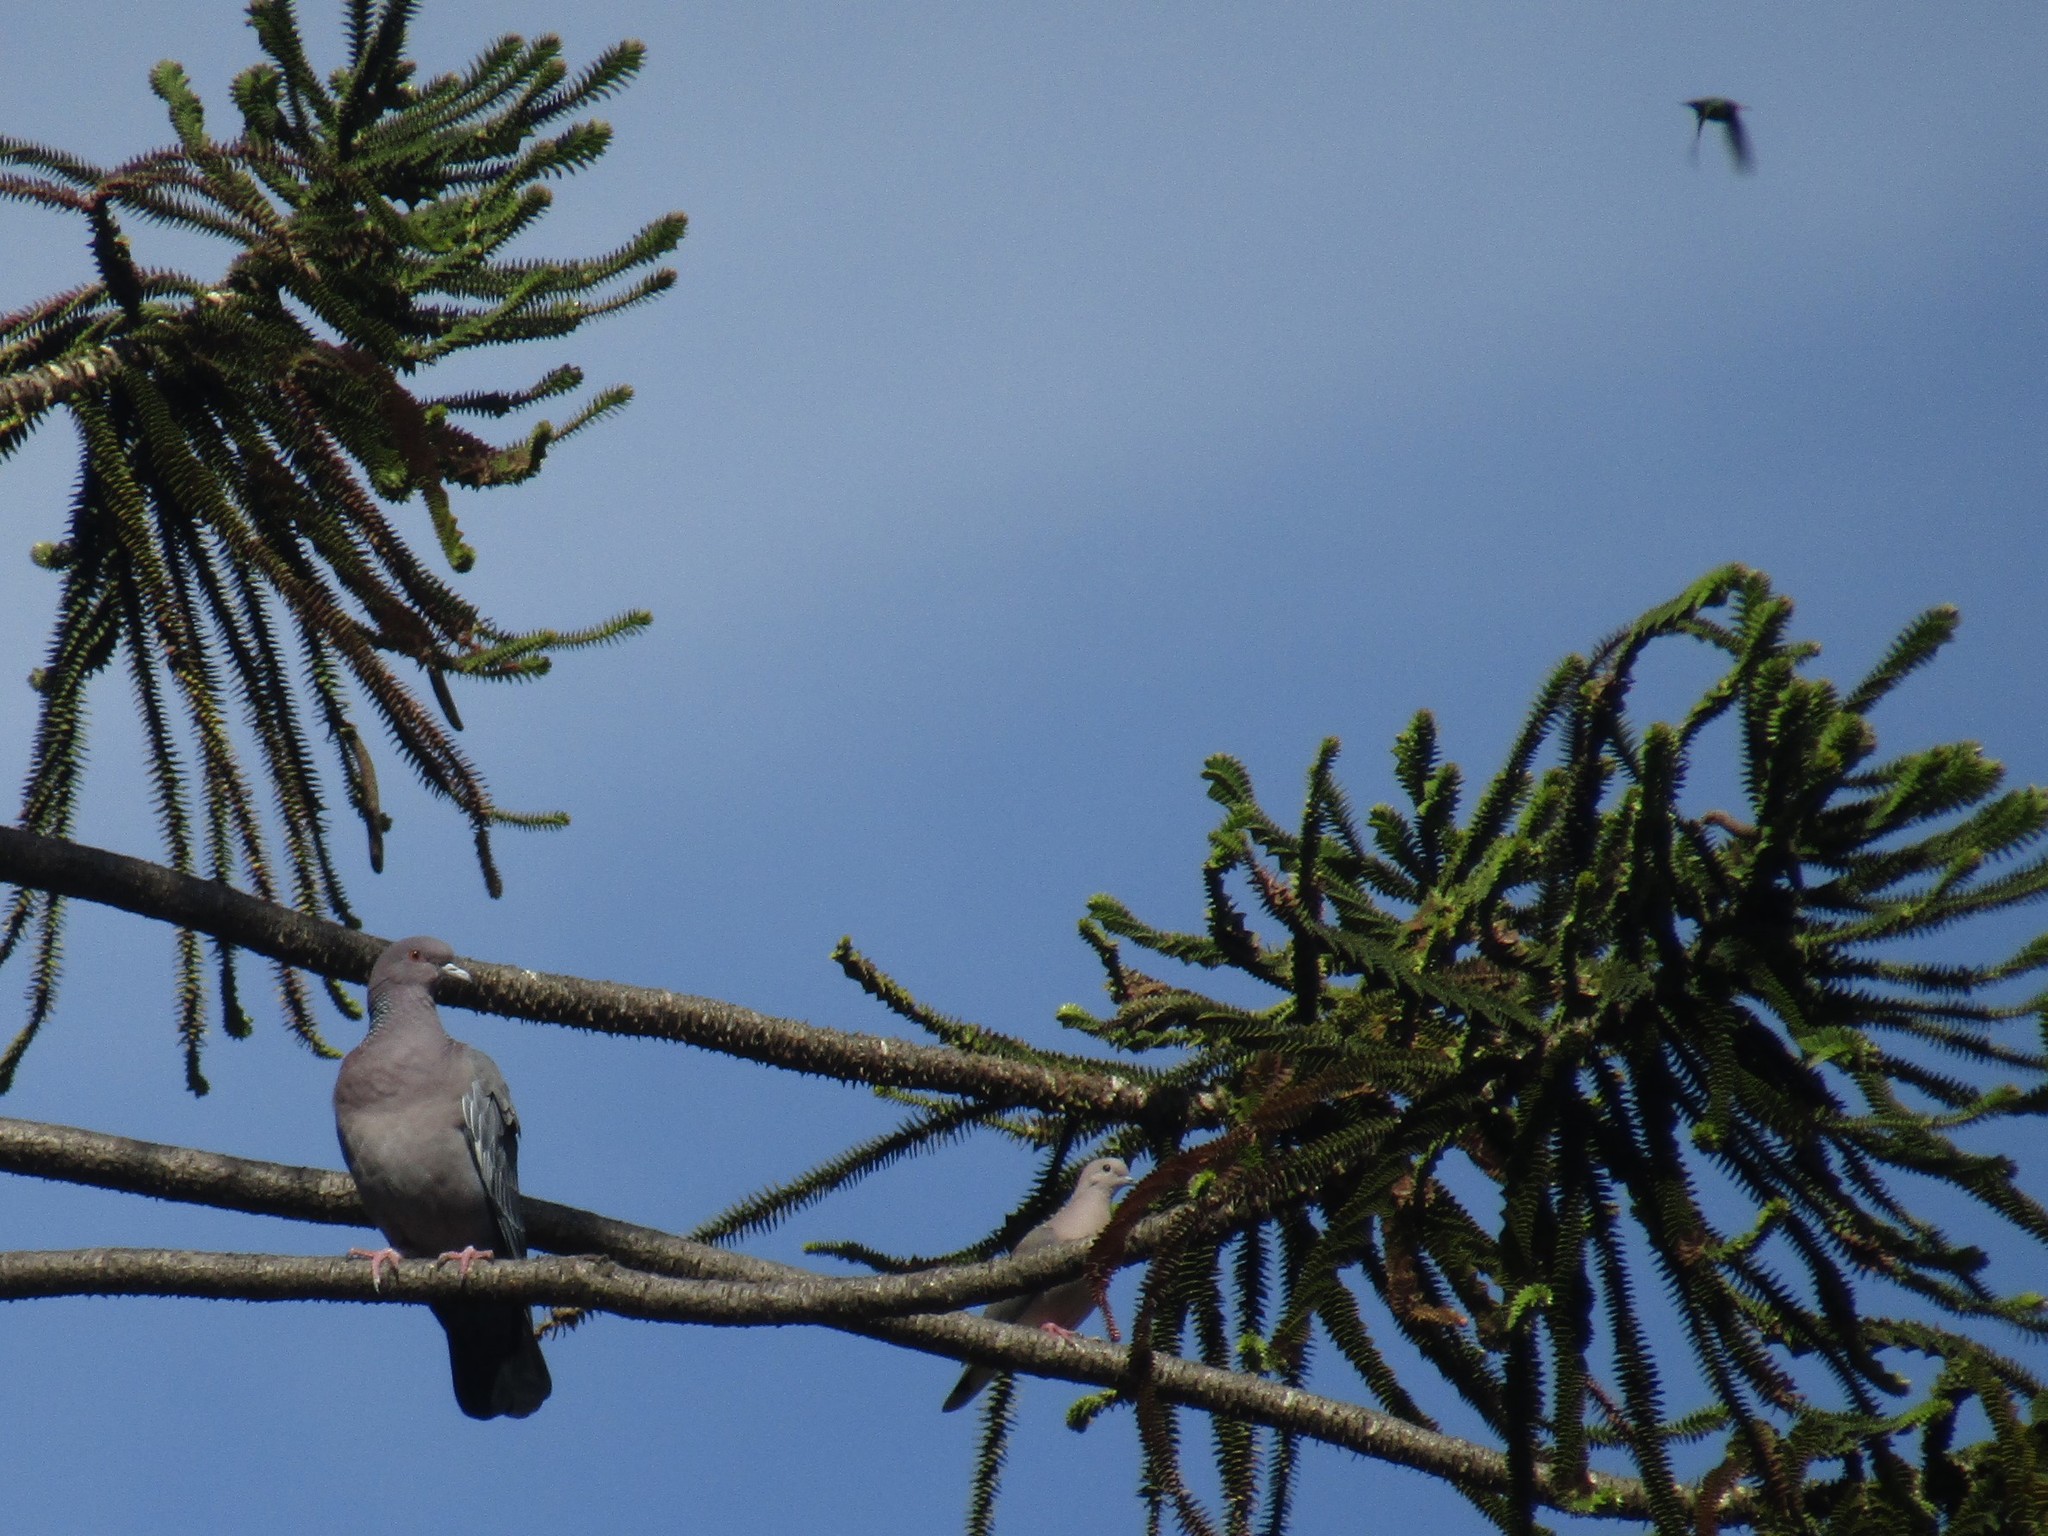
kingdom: Animalia
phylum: Chordata
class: Aves
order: Columbiformes
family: Columbidae
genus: Patagioenas
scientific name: Patagioenas picazuro
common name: Picazuro pigeon
